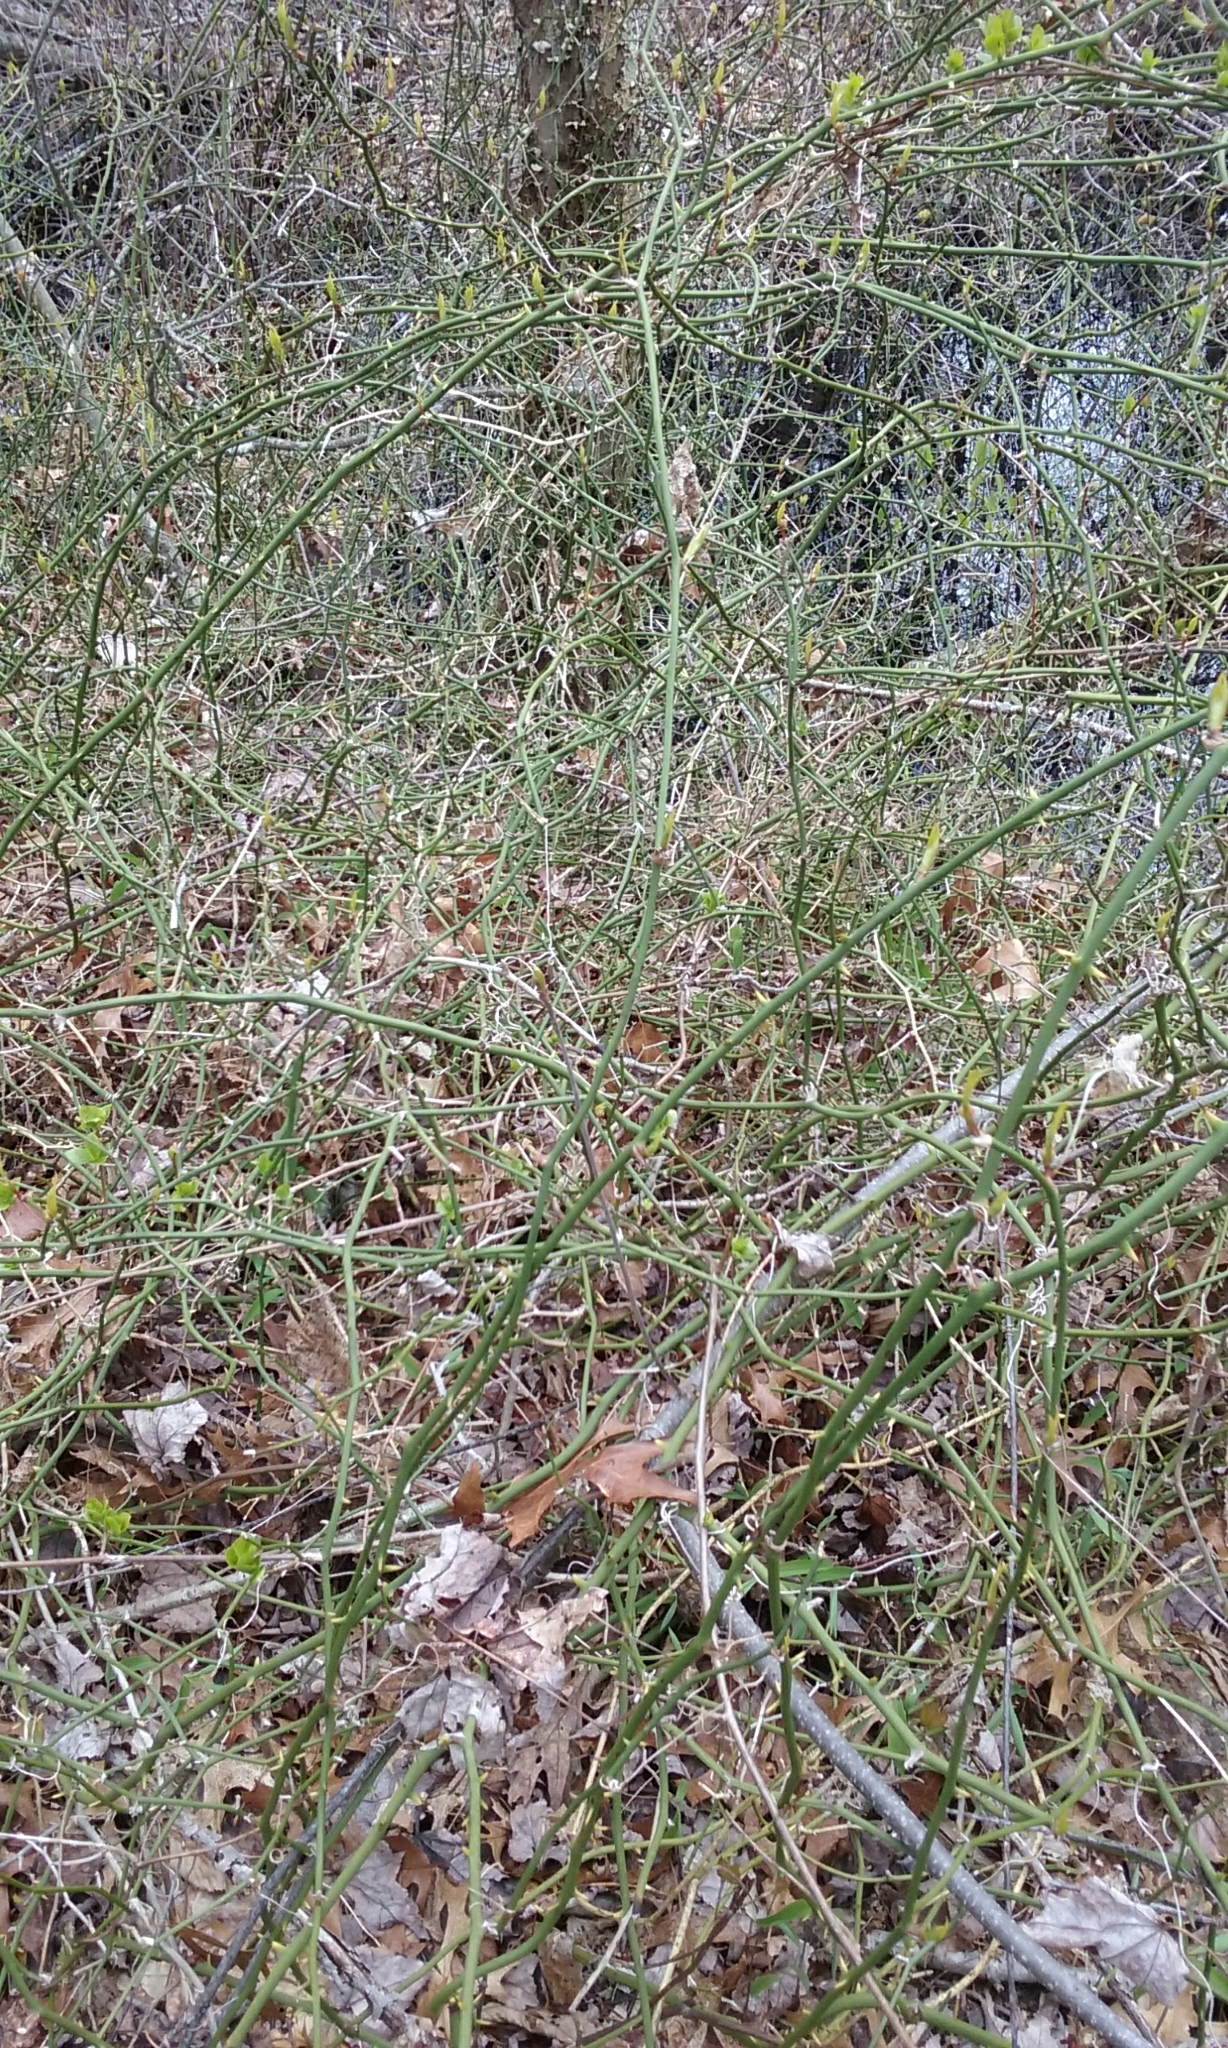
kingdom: Plantae
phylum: Tracheophyta
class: Liliopsida
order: Liliales
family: Smilacaceae
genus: Smilax
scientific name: Smilax rotundifolia
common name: Bullbriar
